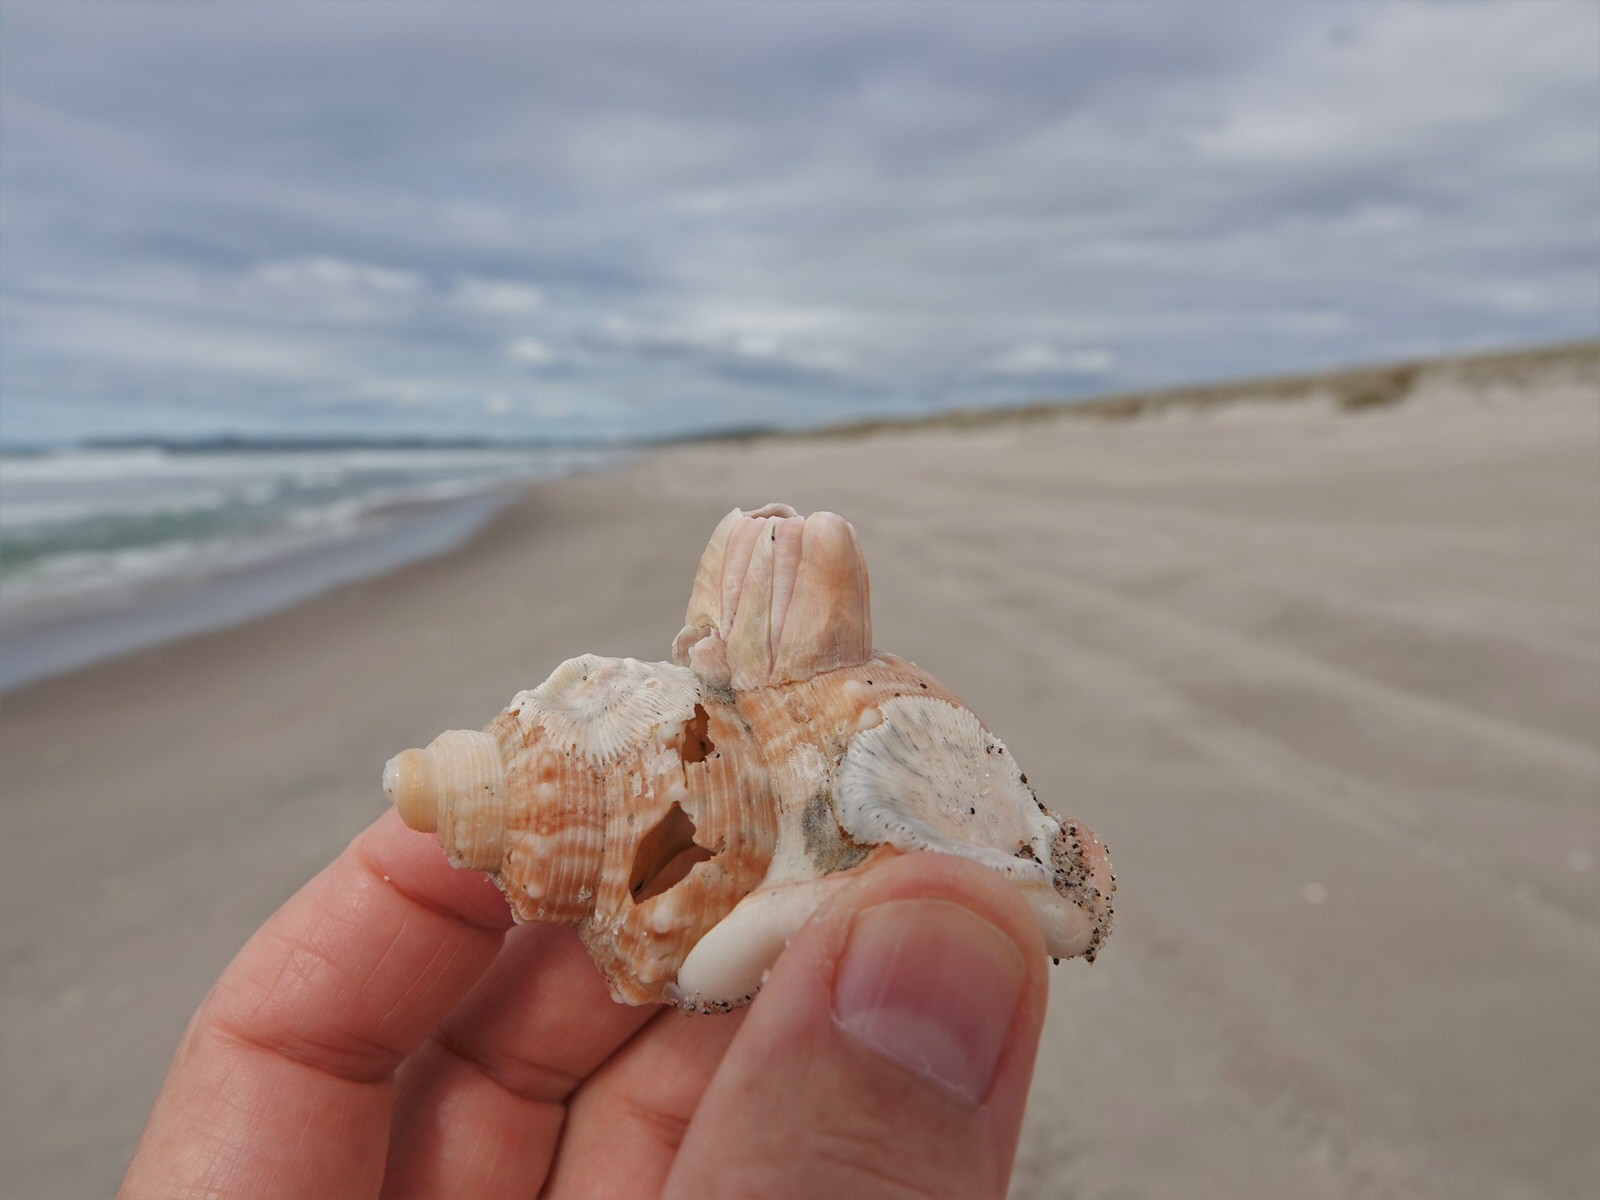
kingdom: Animalia
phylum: Arthropoda
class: Maxillopoda
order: Sessilia
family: Balanidae
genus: Notomegabalanus
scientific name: Notomegabalanus decorus
